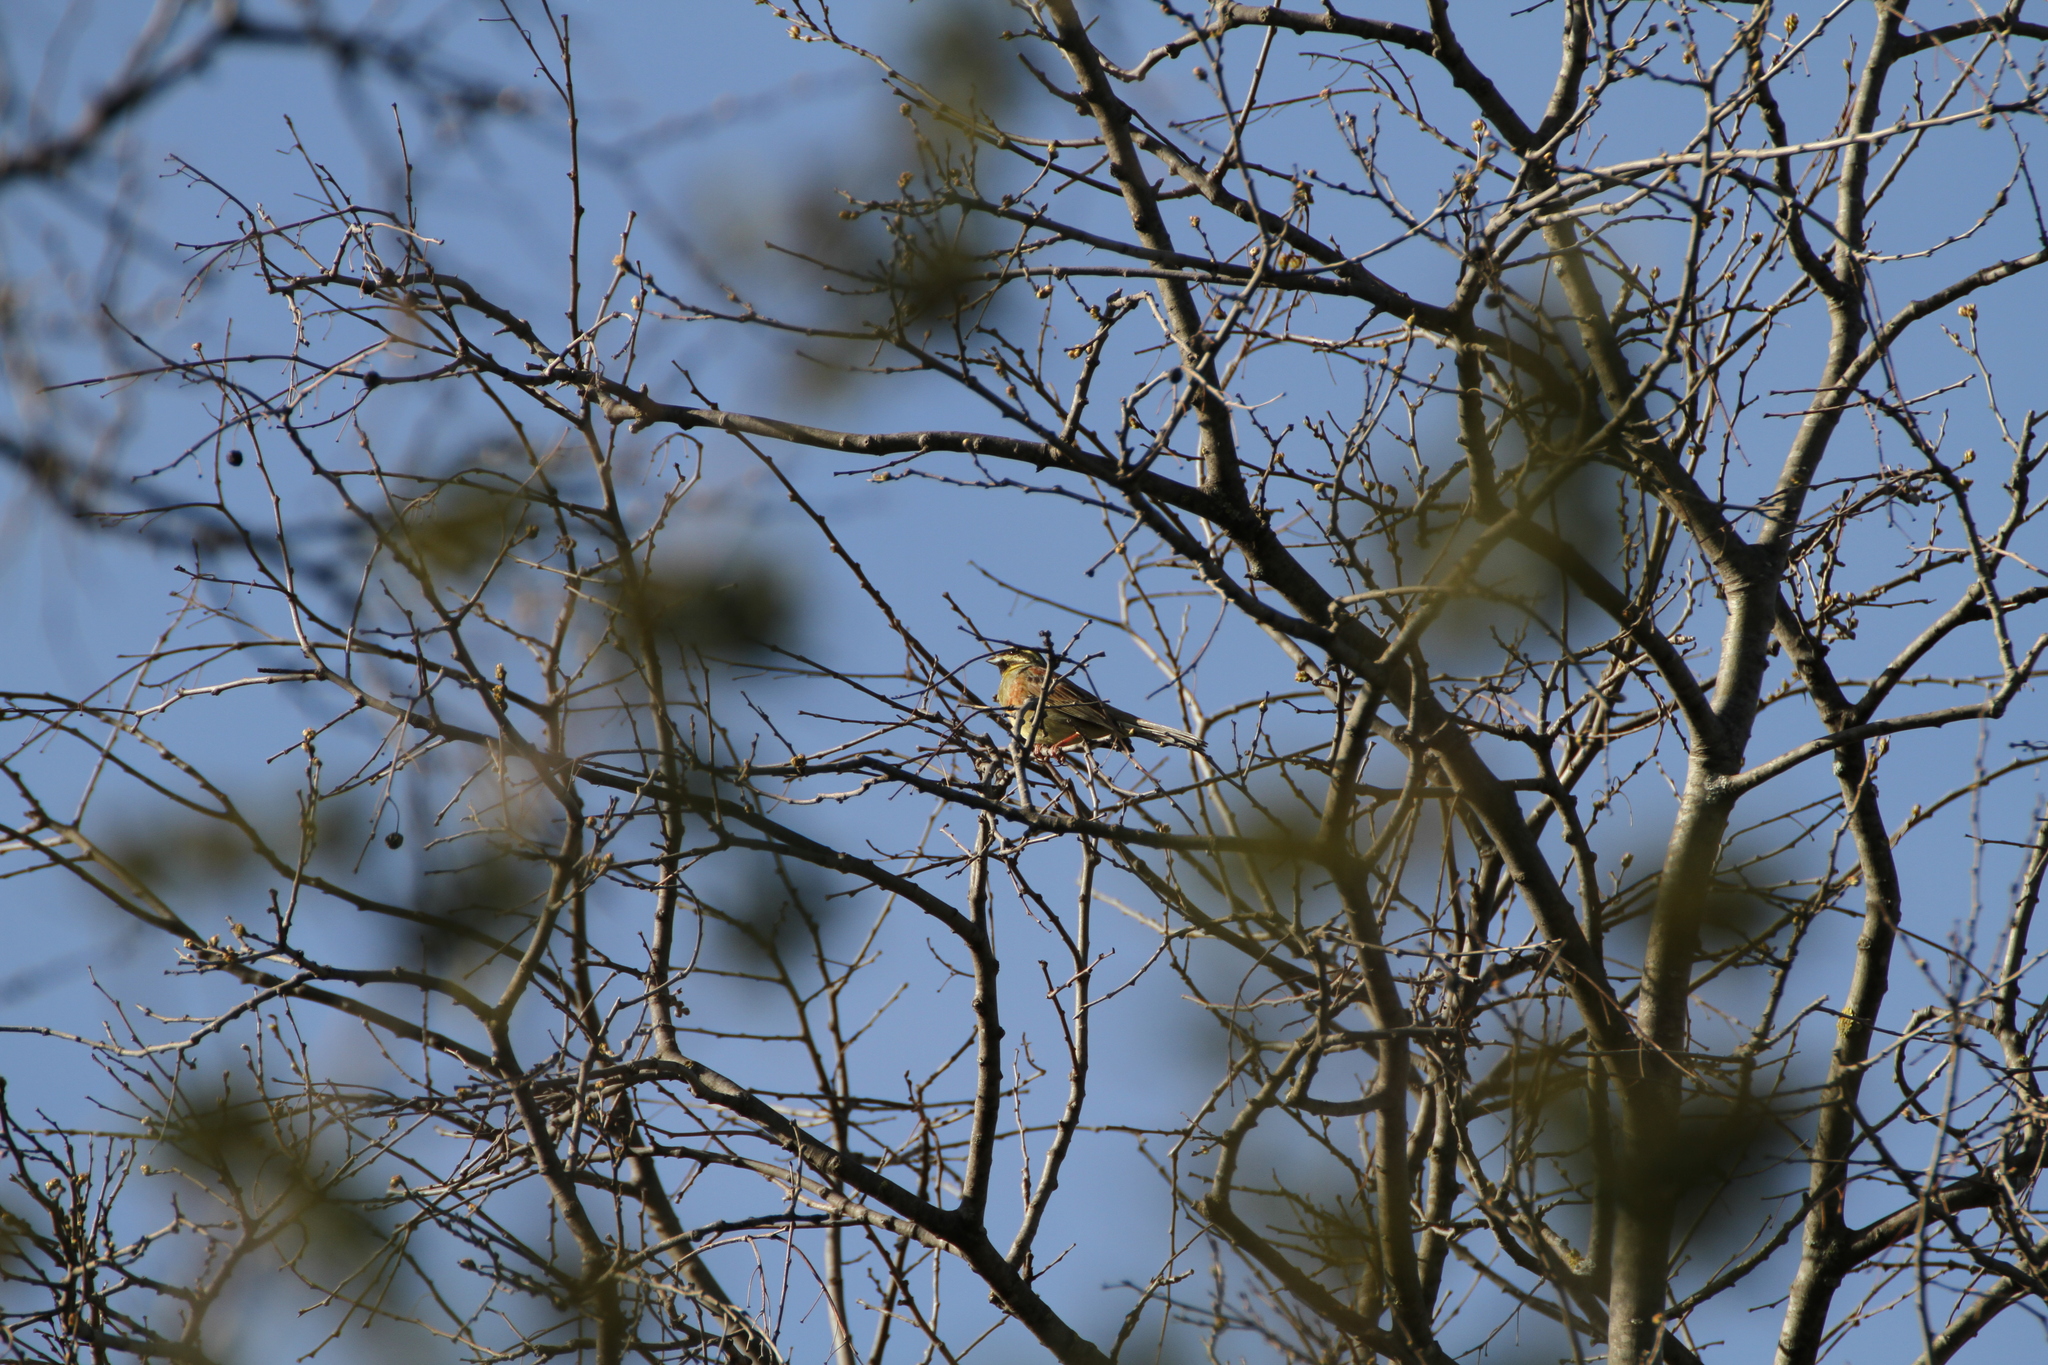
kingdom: Animalia
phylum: Chordata
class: Aves
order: Passeriformes
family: Emberizidae
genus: Emberiza
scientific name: Emberiza cirlus
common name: Cirl bunting
